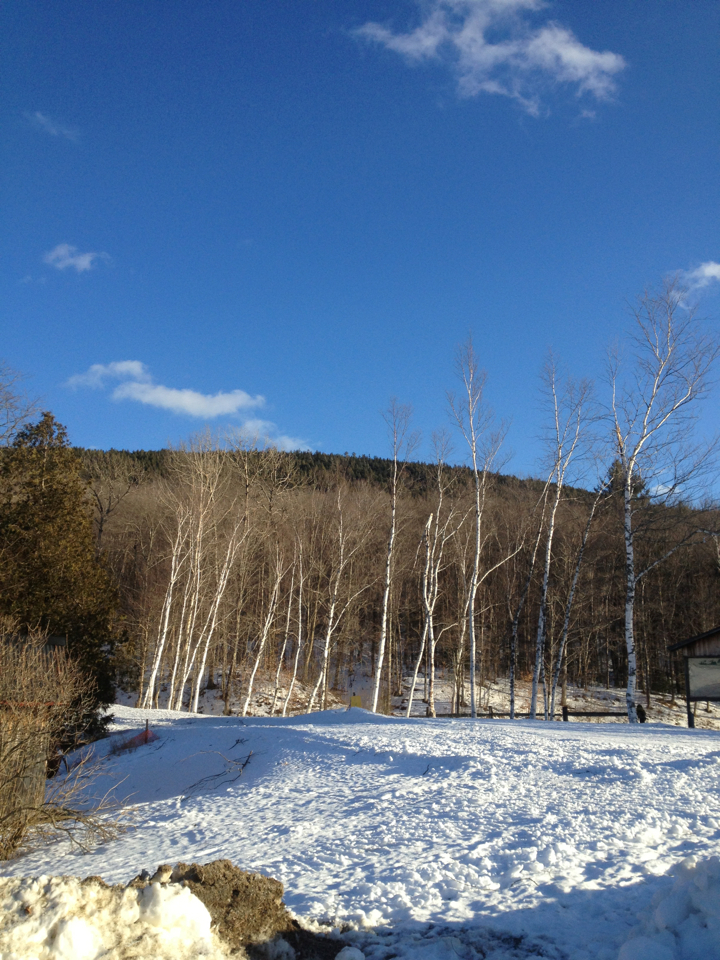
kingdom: Plantae
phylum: Tracheophyta
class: Magnoliopsida
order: Fagales
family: Betulaceae
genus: Betula
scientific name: Betula papyrifera
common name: Paper birch
